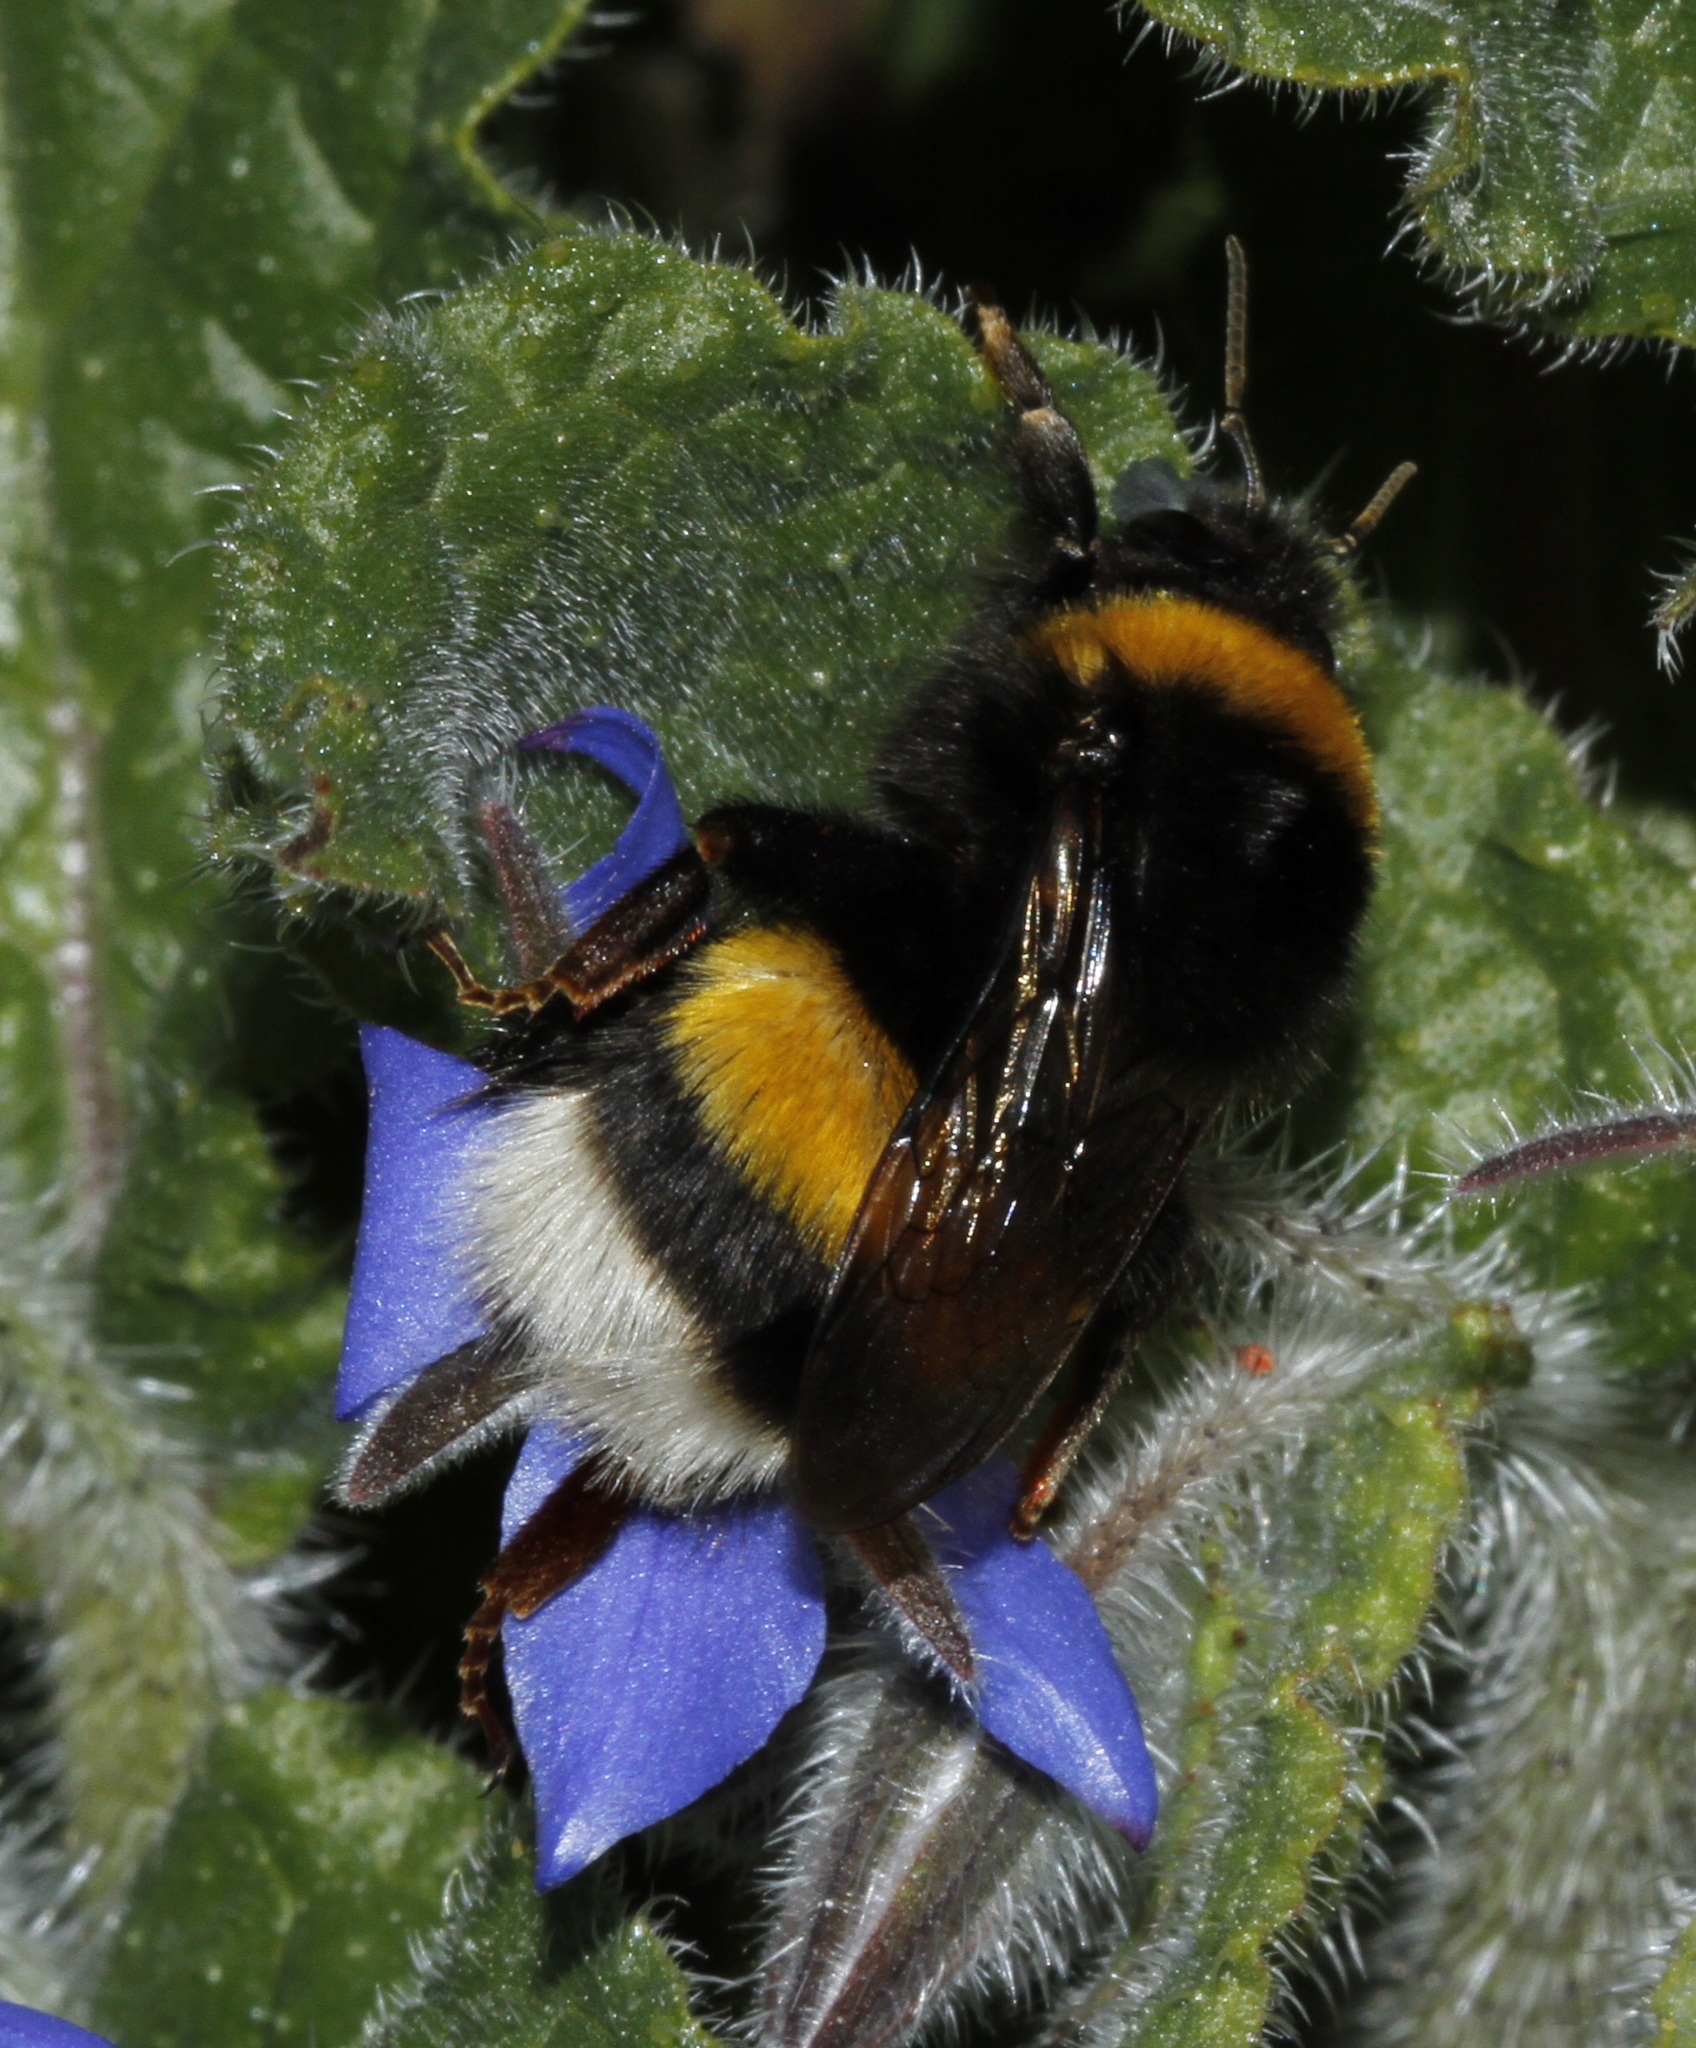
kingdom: Animalia
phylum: Arthropoda
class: Insecta
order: Hymenoptera
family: Apidae
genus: Bombus
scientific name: Bombus terrestris
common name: Buff-tailed bumblebee
